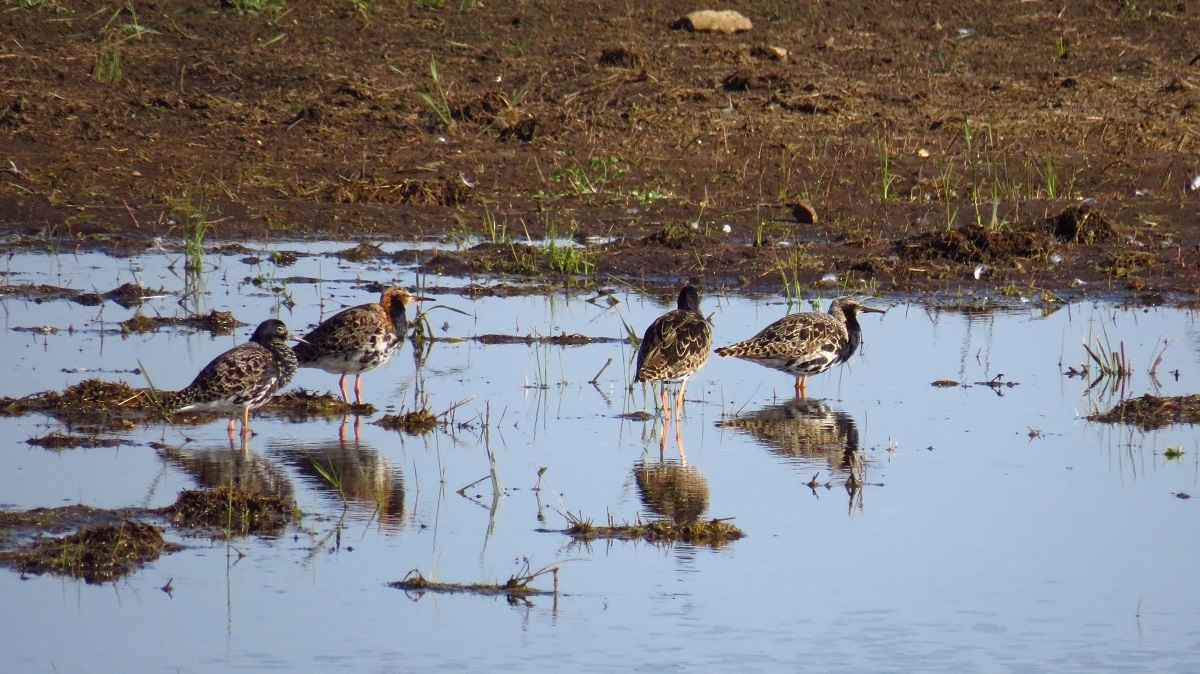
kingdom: Animalia
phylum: Chordata
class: Aves
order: Charadriiformes
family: Scolopacidae
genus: Calidris
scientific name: Calidris pugnax
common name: Ruff
